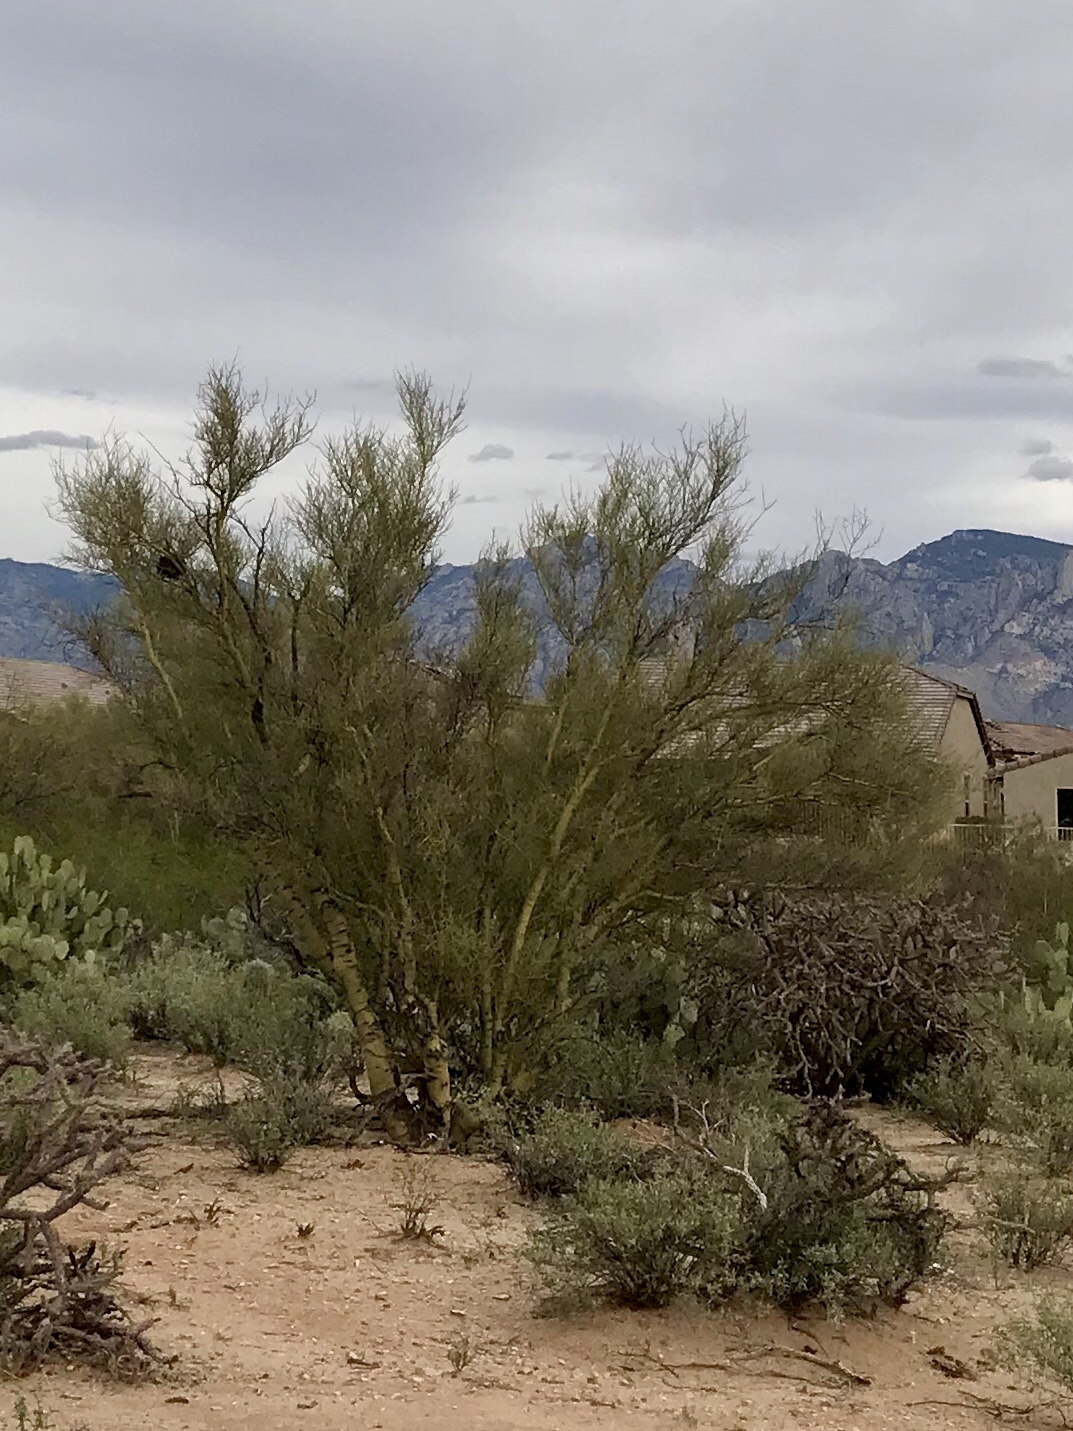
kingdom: Plantae
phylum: Tracheophyta
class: Magnoliopsida
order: Fabales
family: Fabaceae
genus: Parkinsonia
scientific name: Parkinsonia microphylla
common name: Yellow paloverde
